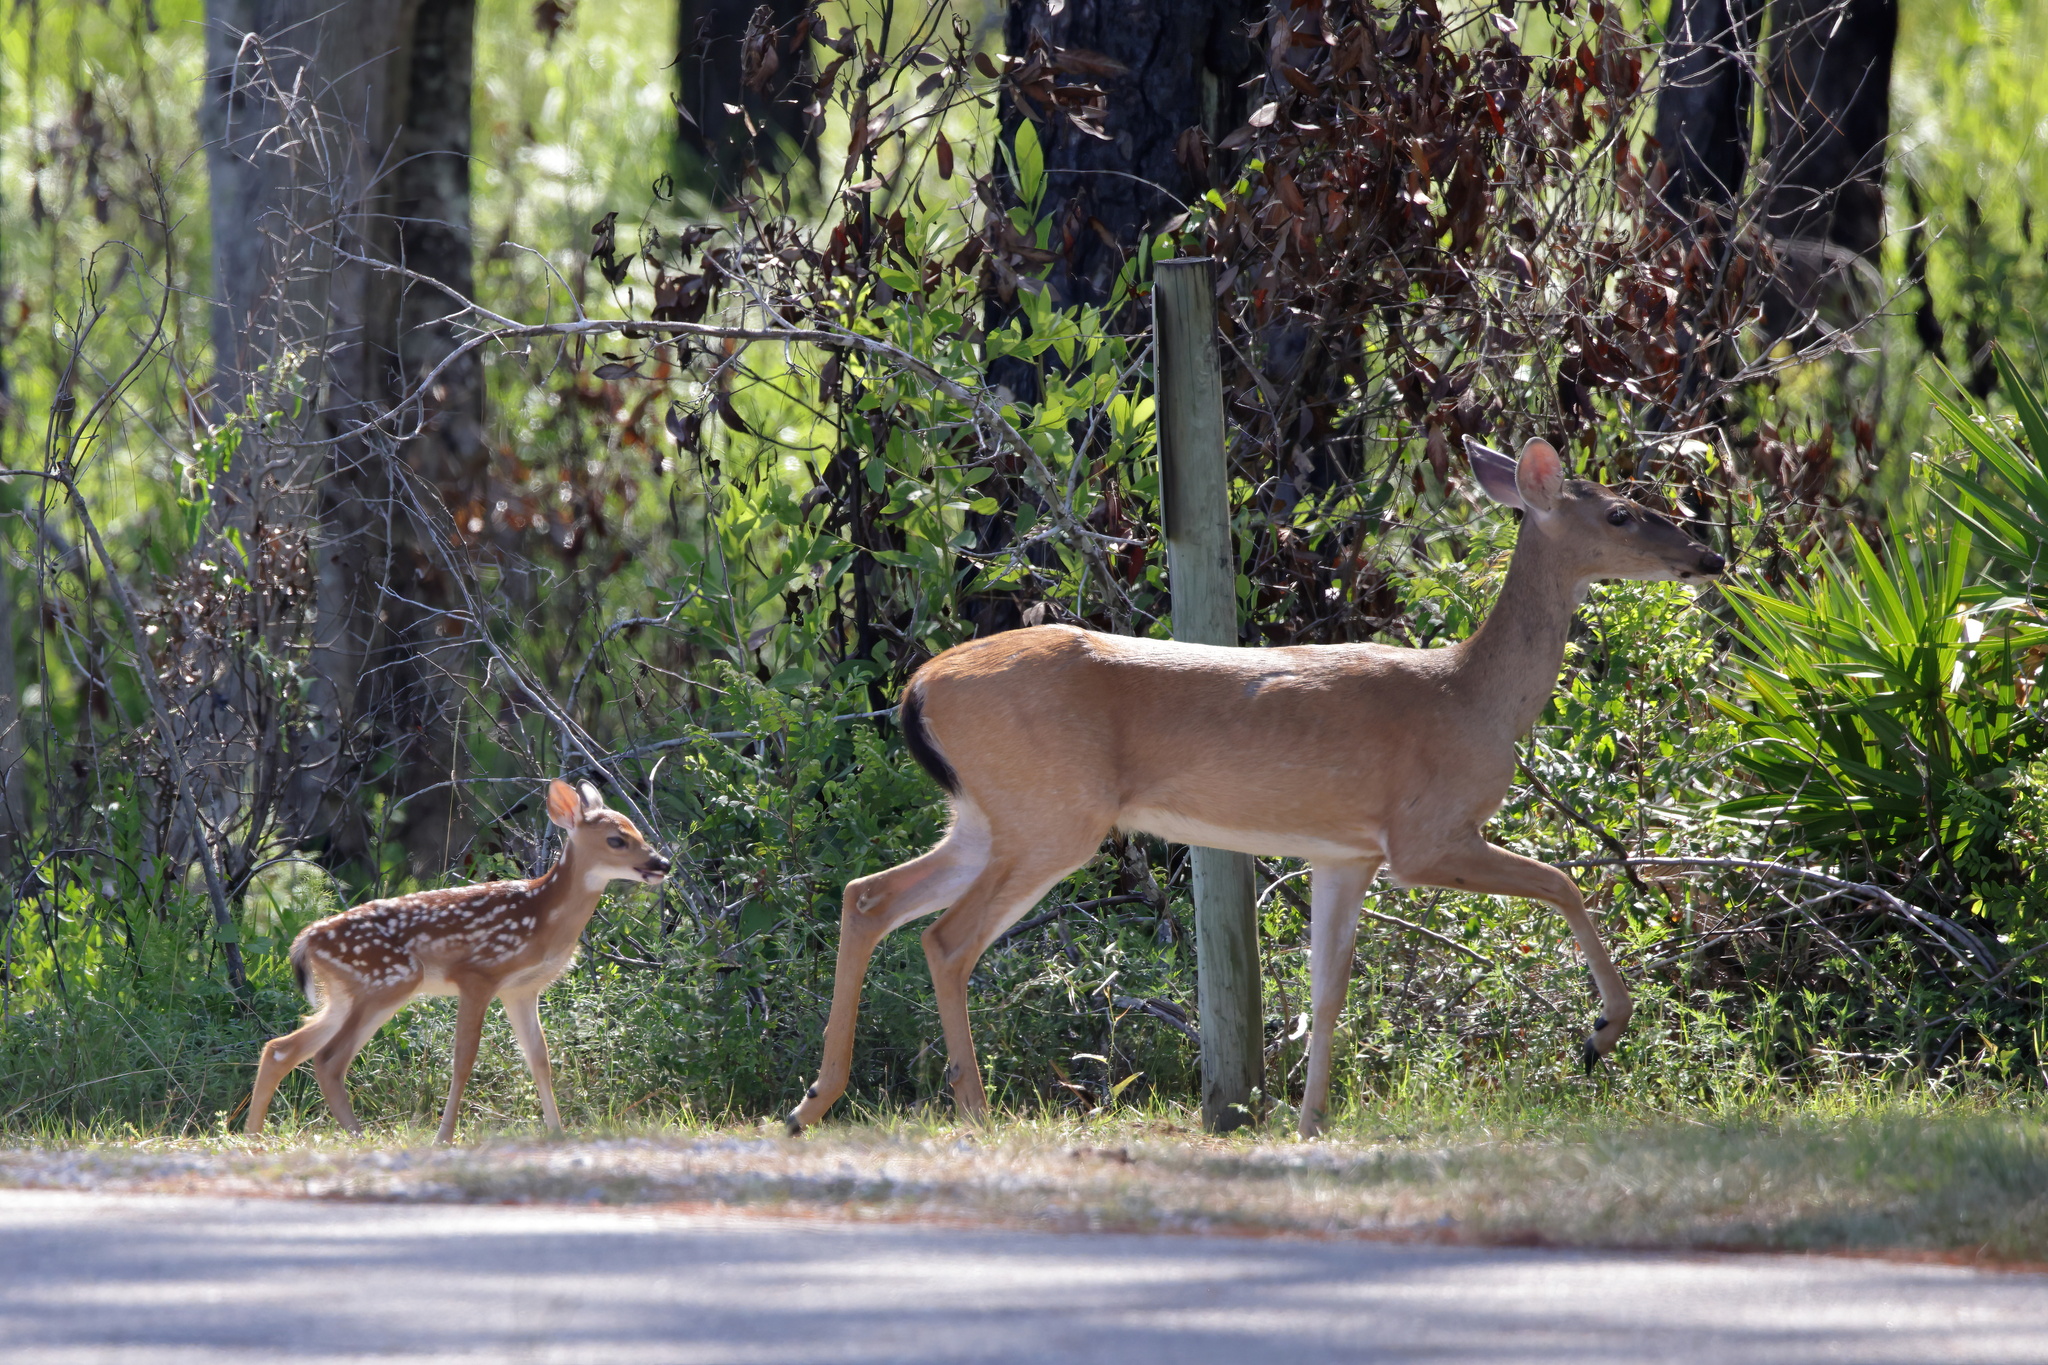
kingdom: Animalia
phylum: Chordata
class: Mammalia
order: Artiodactyla
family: Cervidae
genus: Odocoileus
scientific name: Odocoileus virginianus
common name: White-tailed deer
